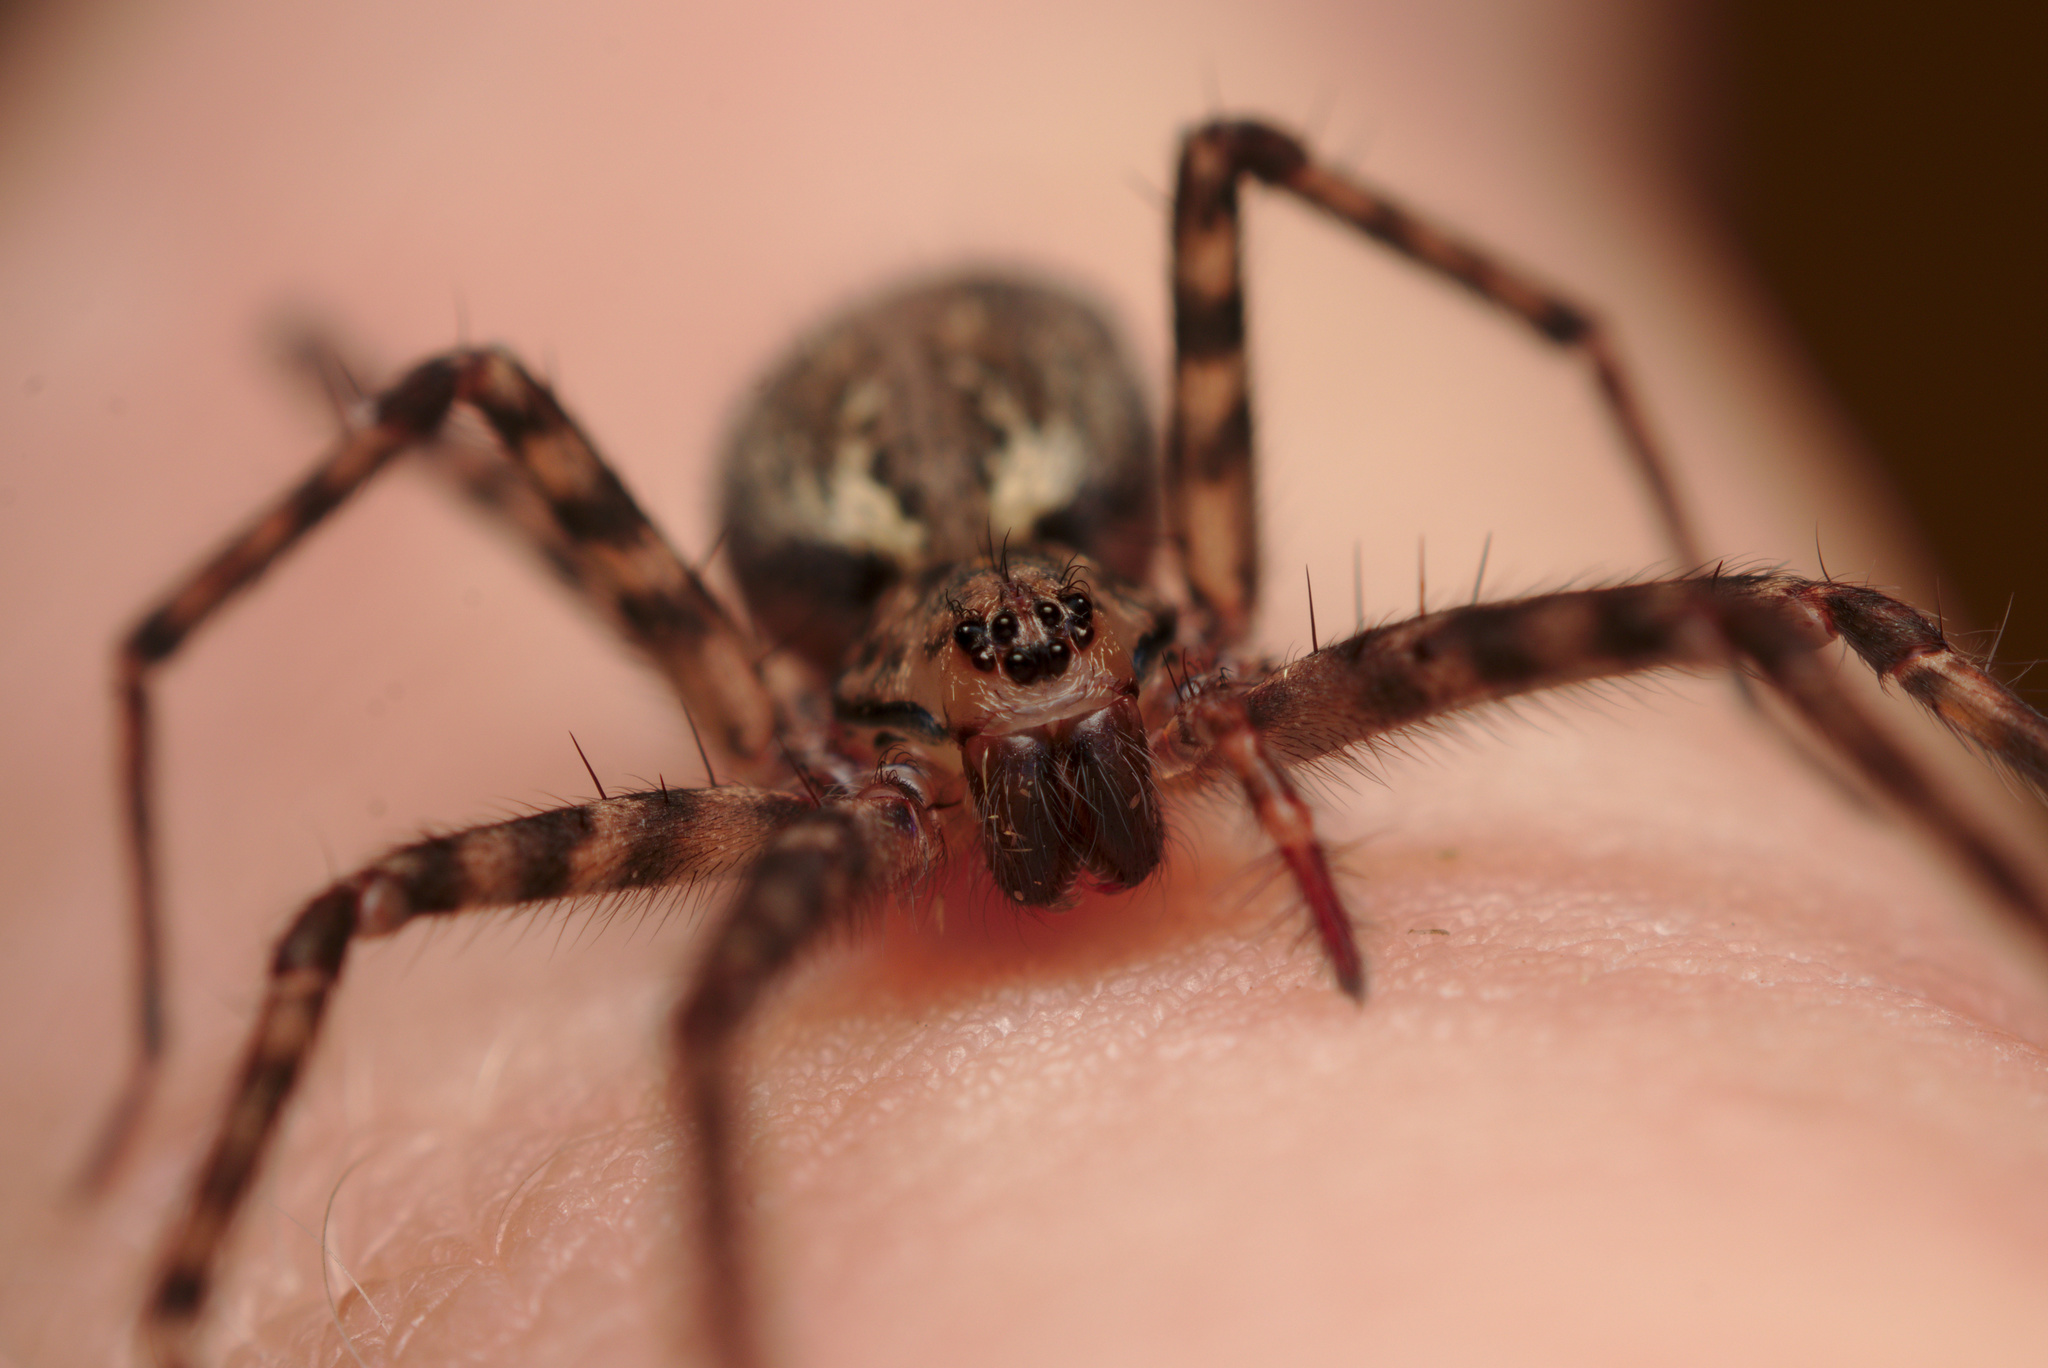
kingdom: Animalia
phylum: Arthropoda
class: Arachnida
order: Araneae
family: Stiphidiidae
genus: Stiphidion
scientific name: Stiphidion facetum
